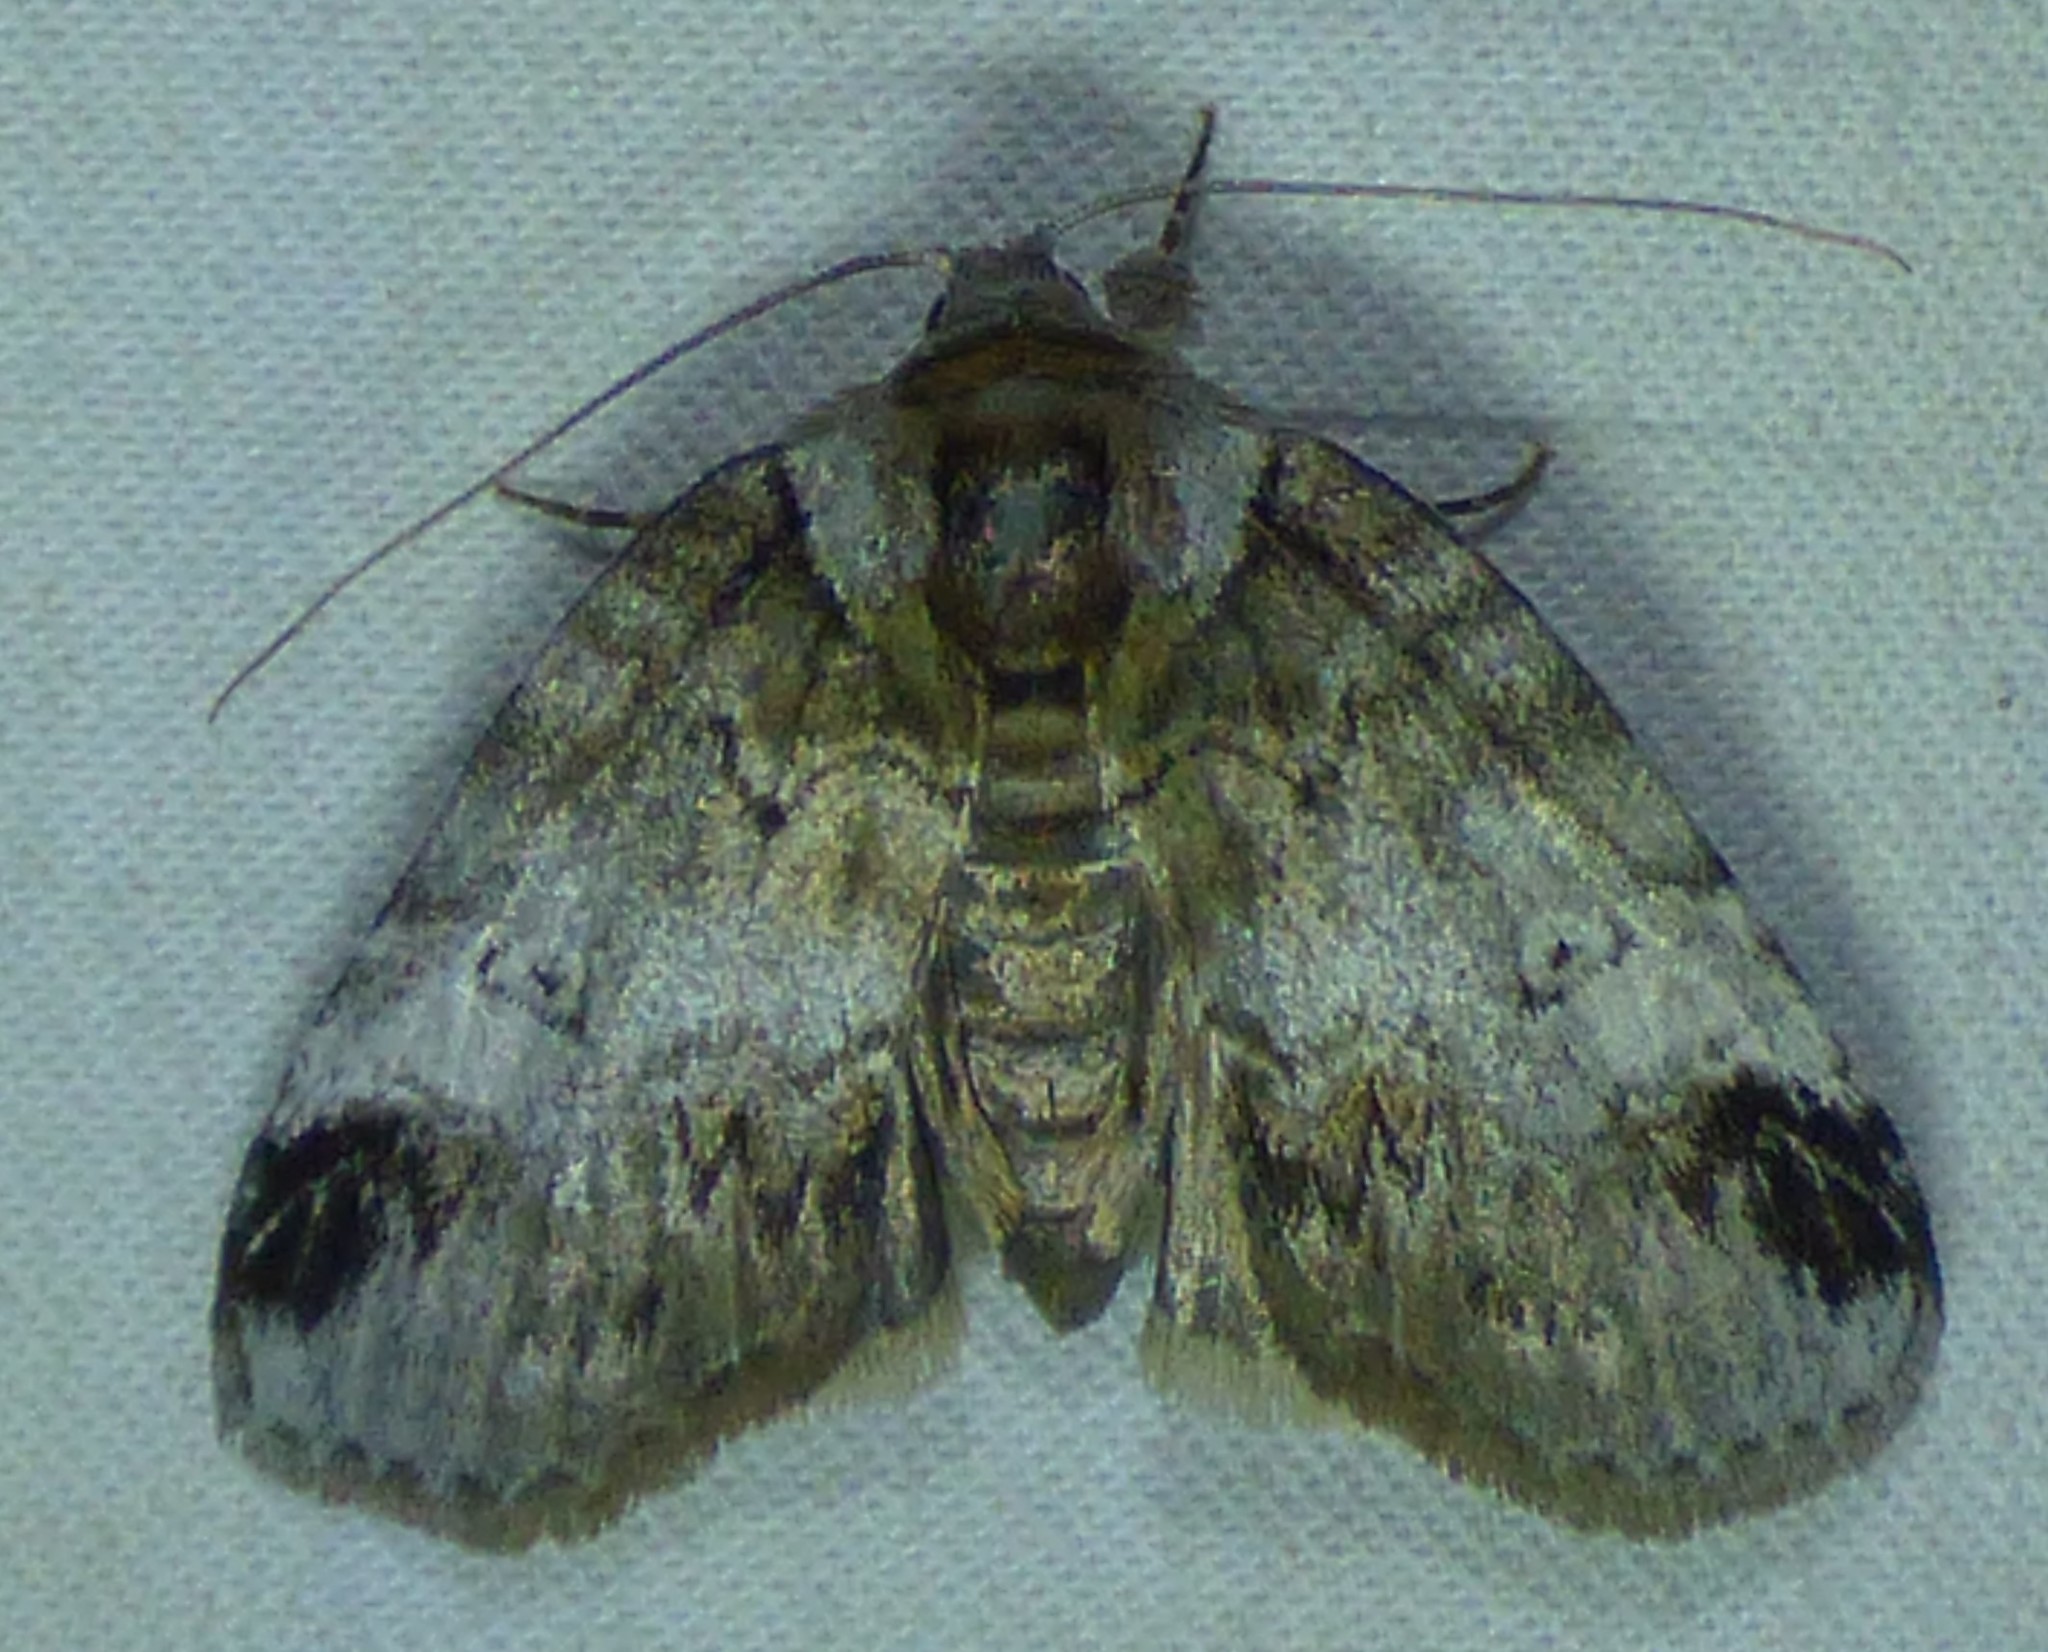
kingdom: Animalia
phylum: Arthropoda
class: Insecta
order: Lepidoptera
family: Nolidae
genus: Baileya
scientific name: Baileya dormitans
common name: Sleeping baileya moth
